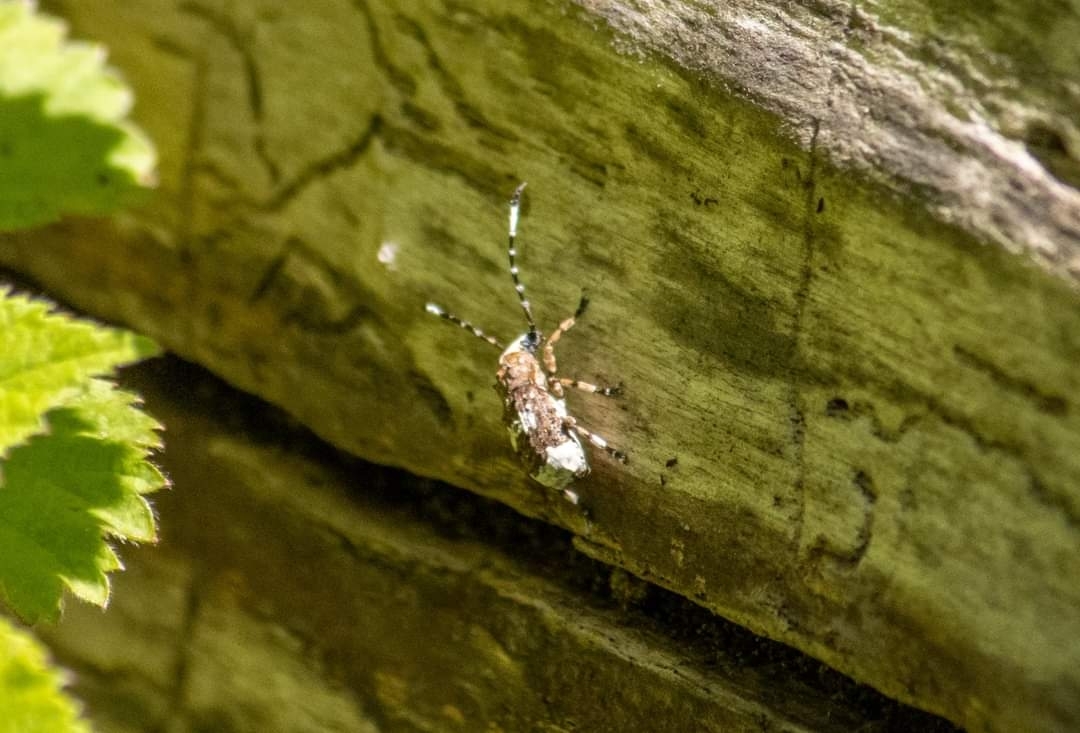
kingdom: Animalia
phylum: Arthropoda
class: Insecta
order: Coleoptera
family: Anthribidae
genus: Platystomos
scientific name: Platystomos albinus
